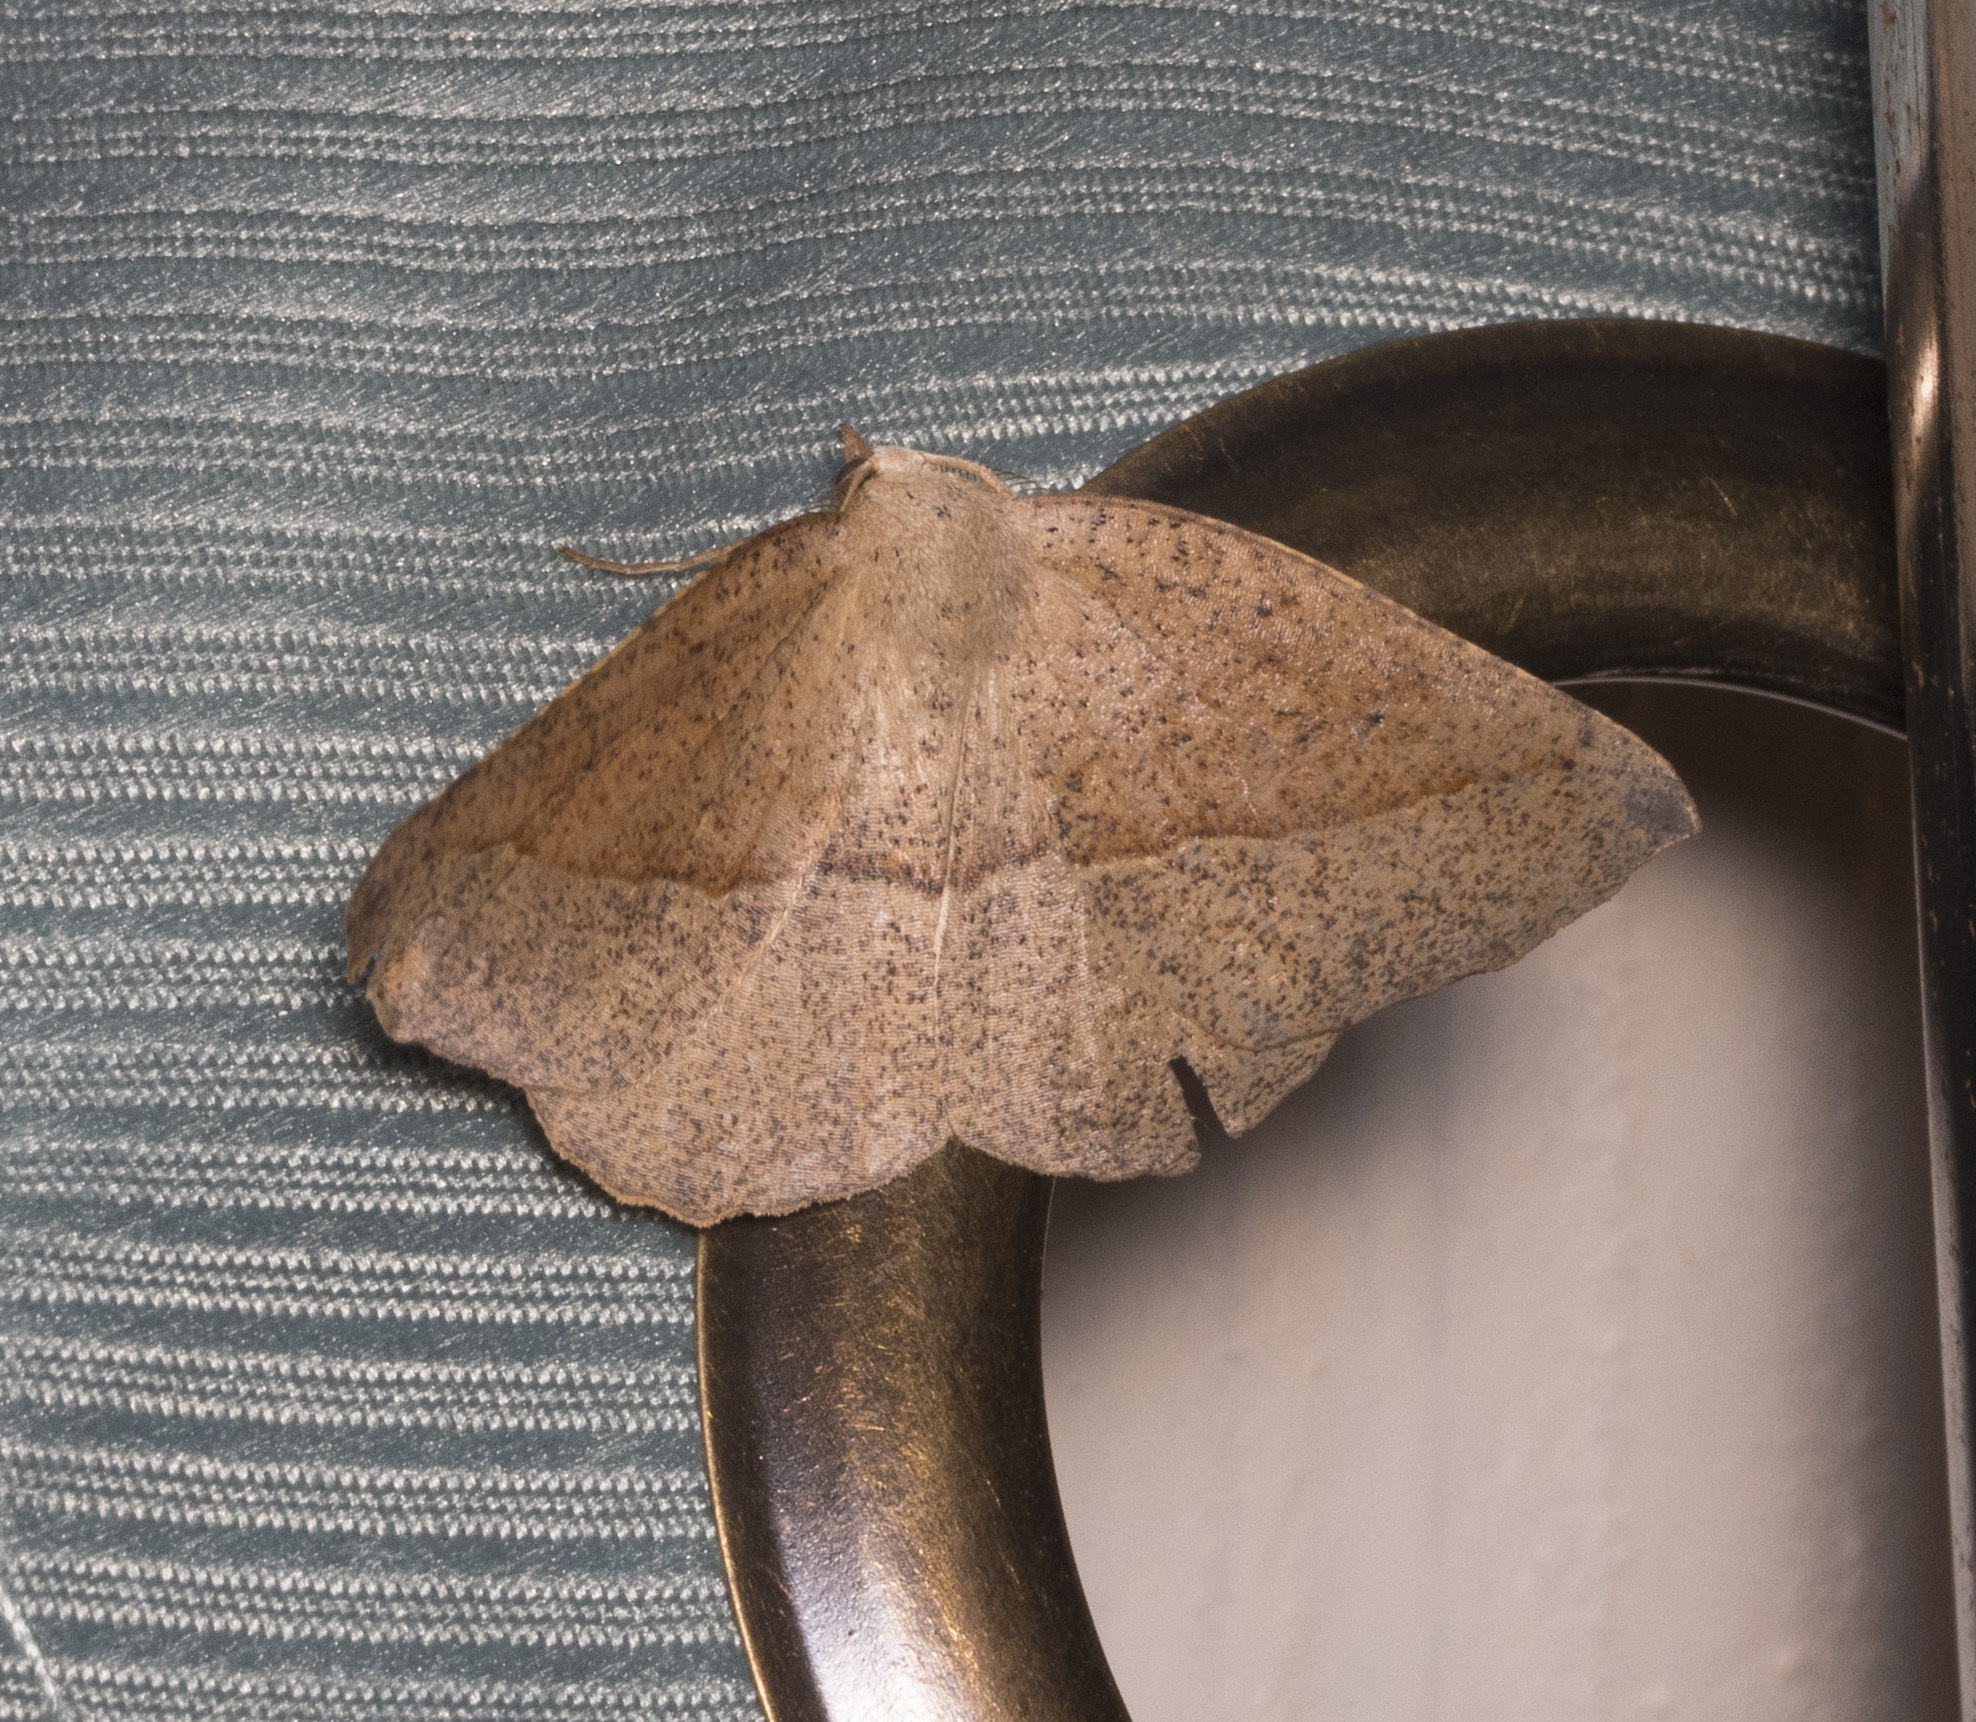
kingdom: Animalia
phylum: Arthropoda
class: Insecta
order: Lepidoptera
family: Geometridae
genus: Syncirsodes
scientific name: Syncirsodes primata
